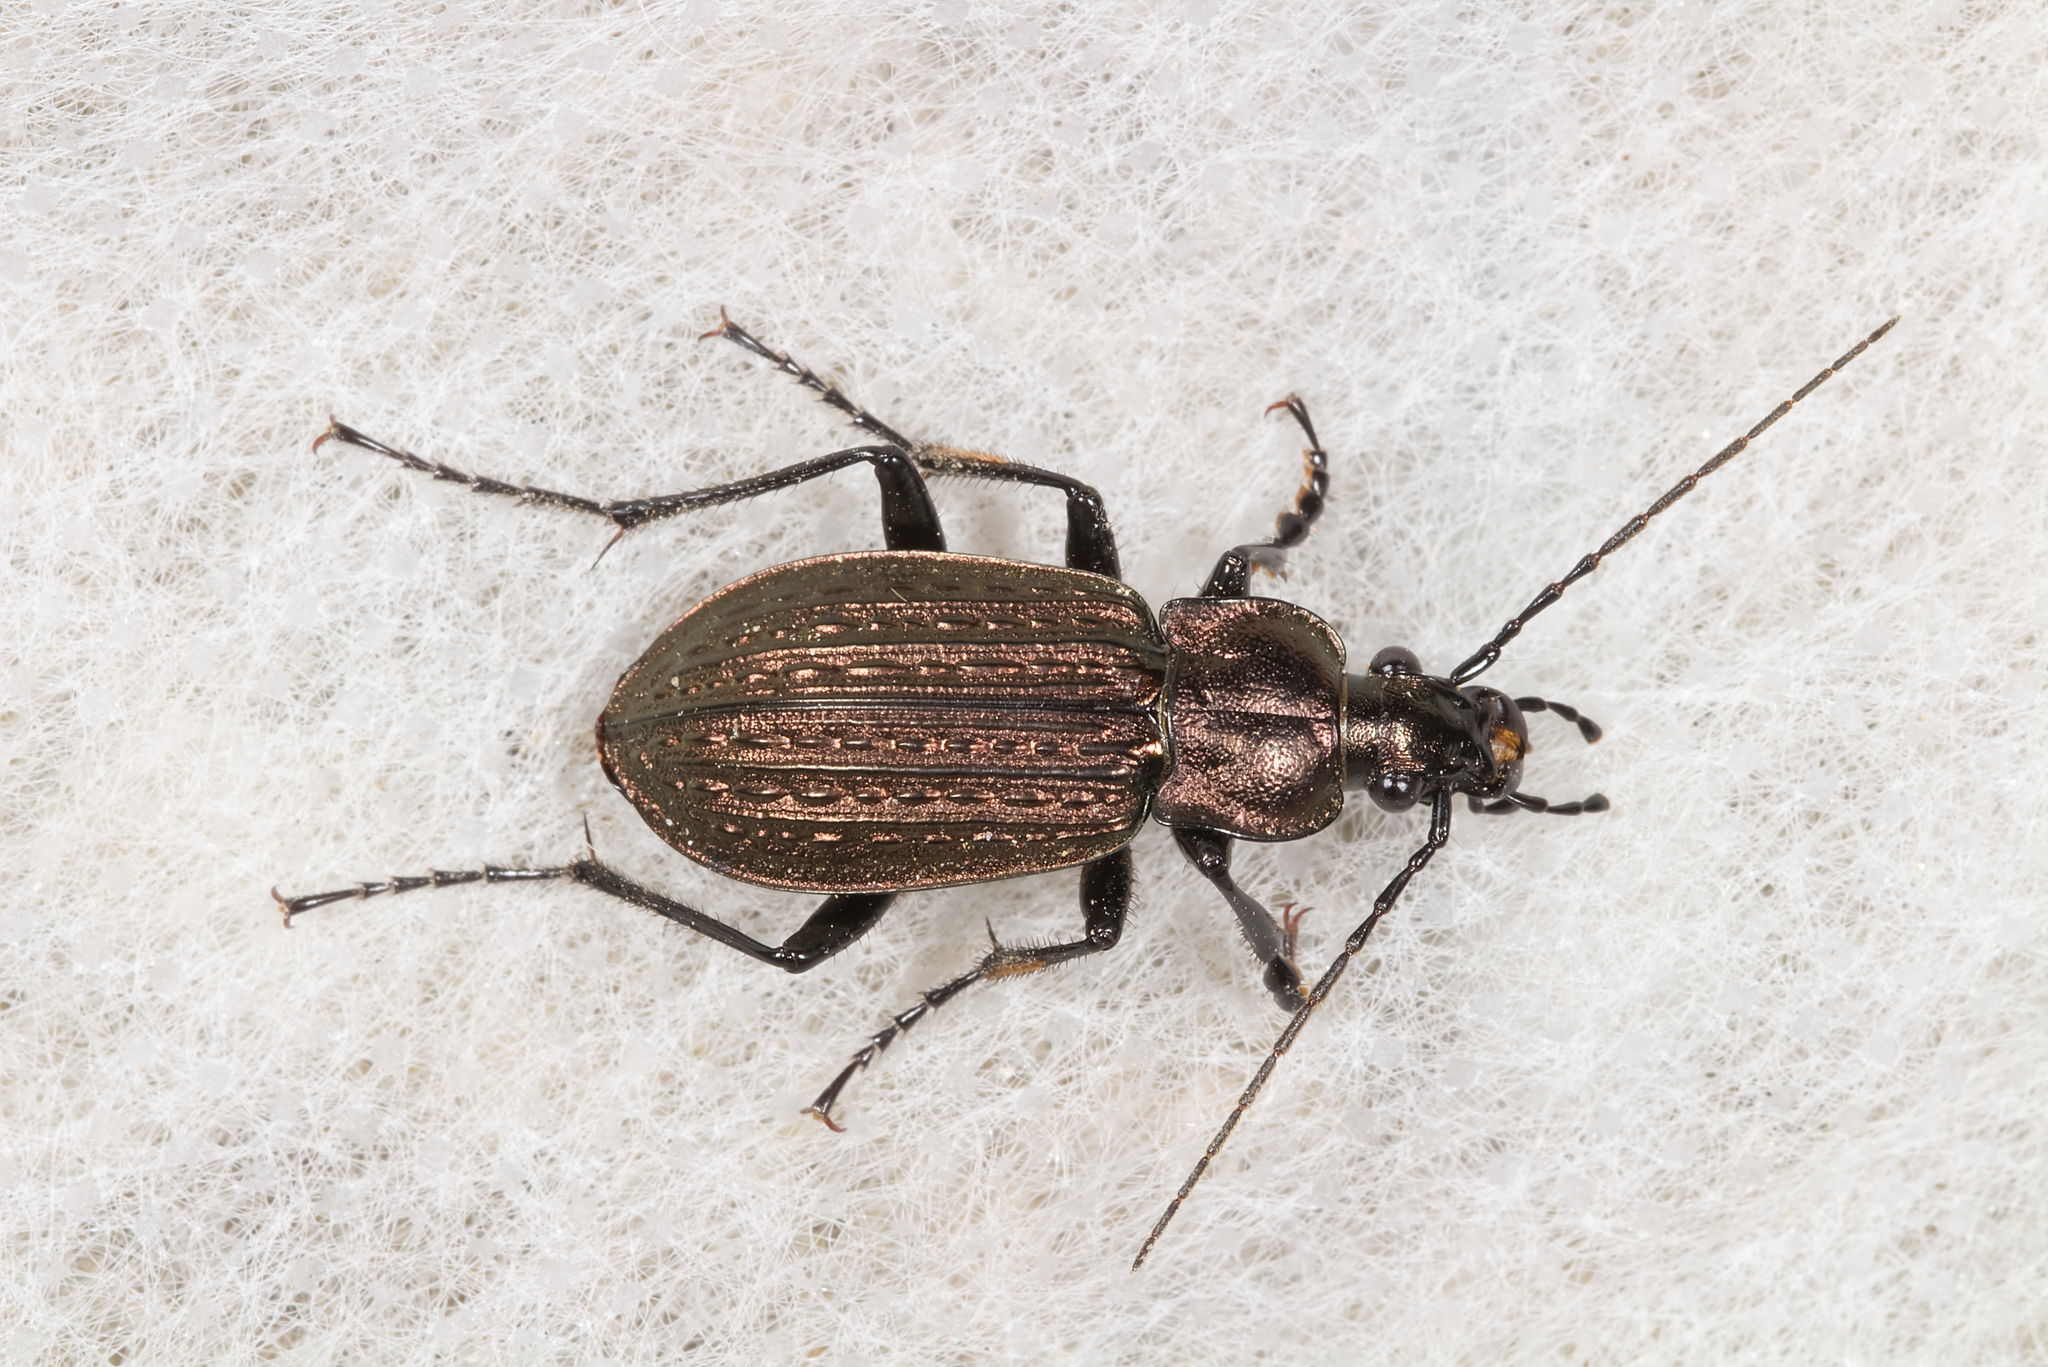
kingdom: Animalia
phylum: Arthropoda
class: Insecta
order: Coleoptera
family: Carabidae
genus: Carabus
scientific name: Carabus granulatus
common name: Granulate ground beetle
